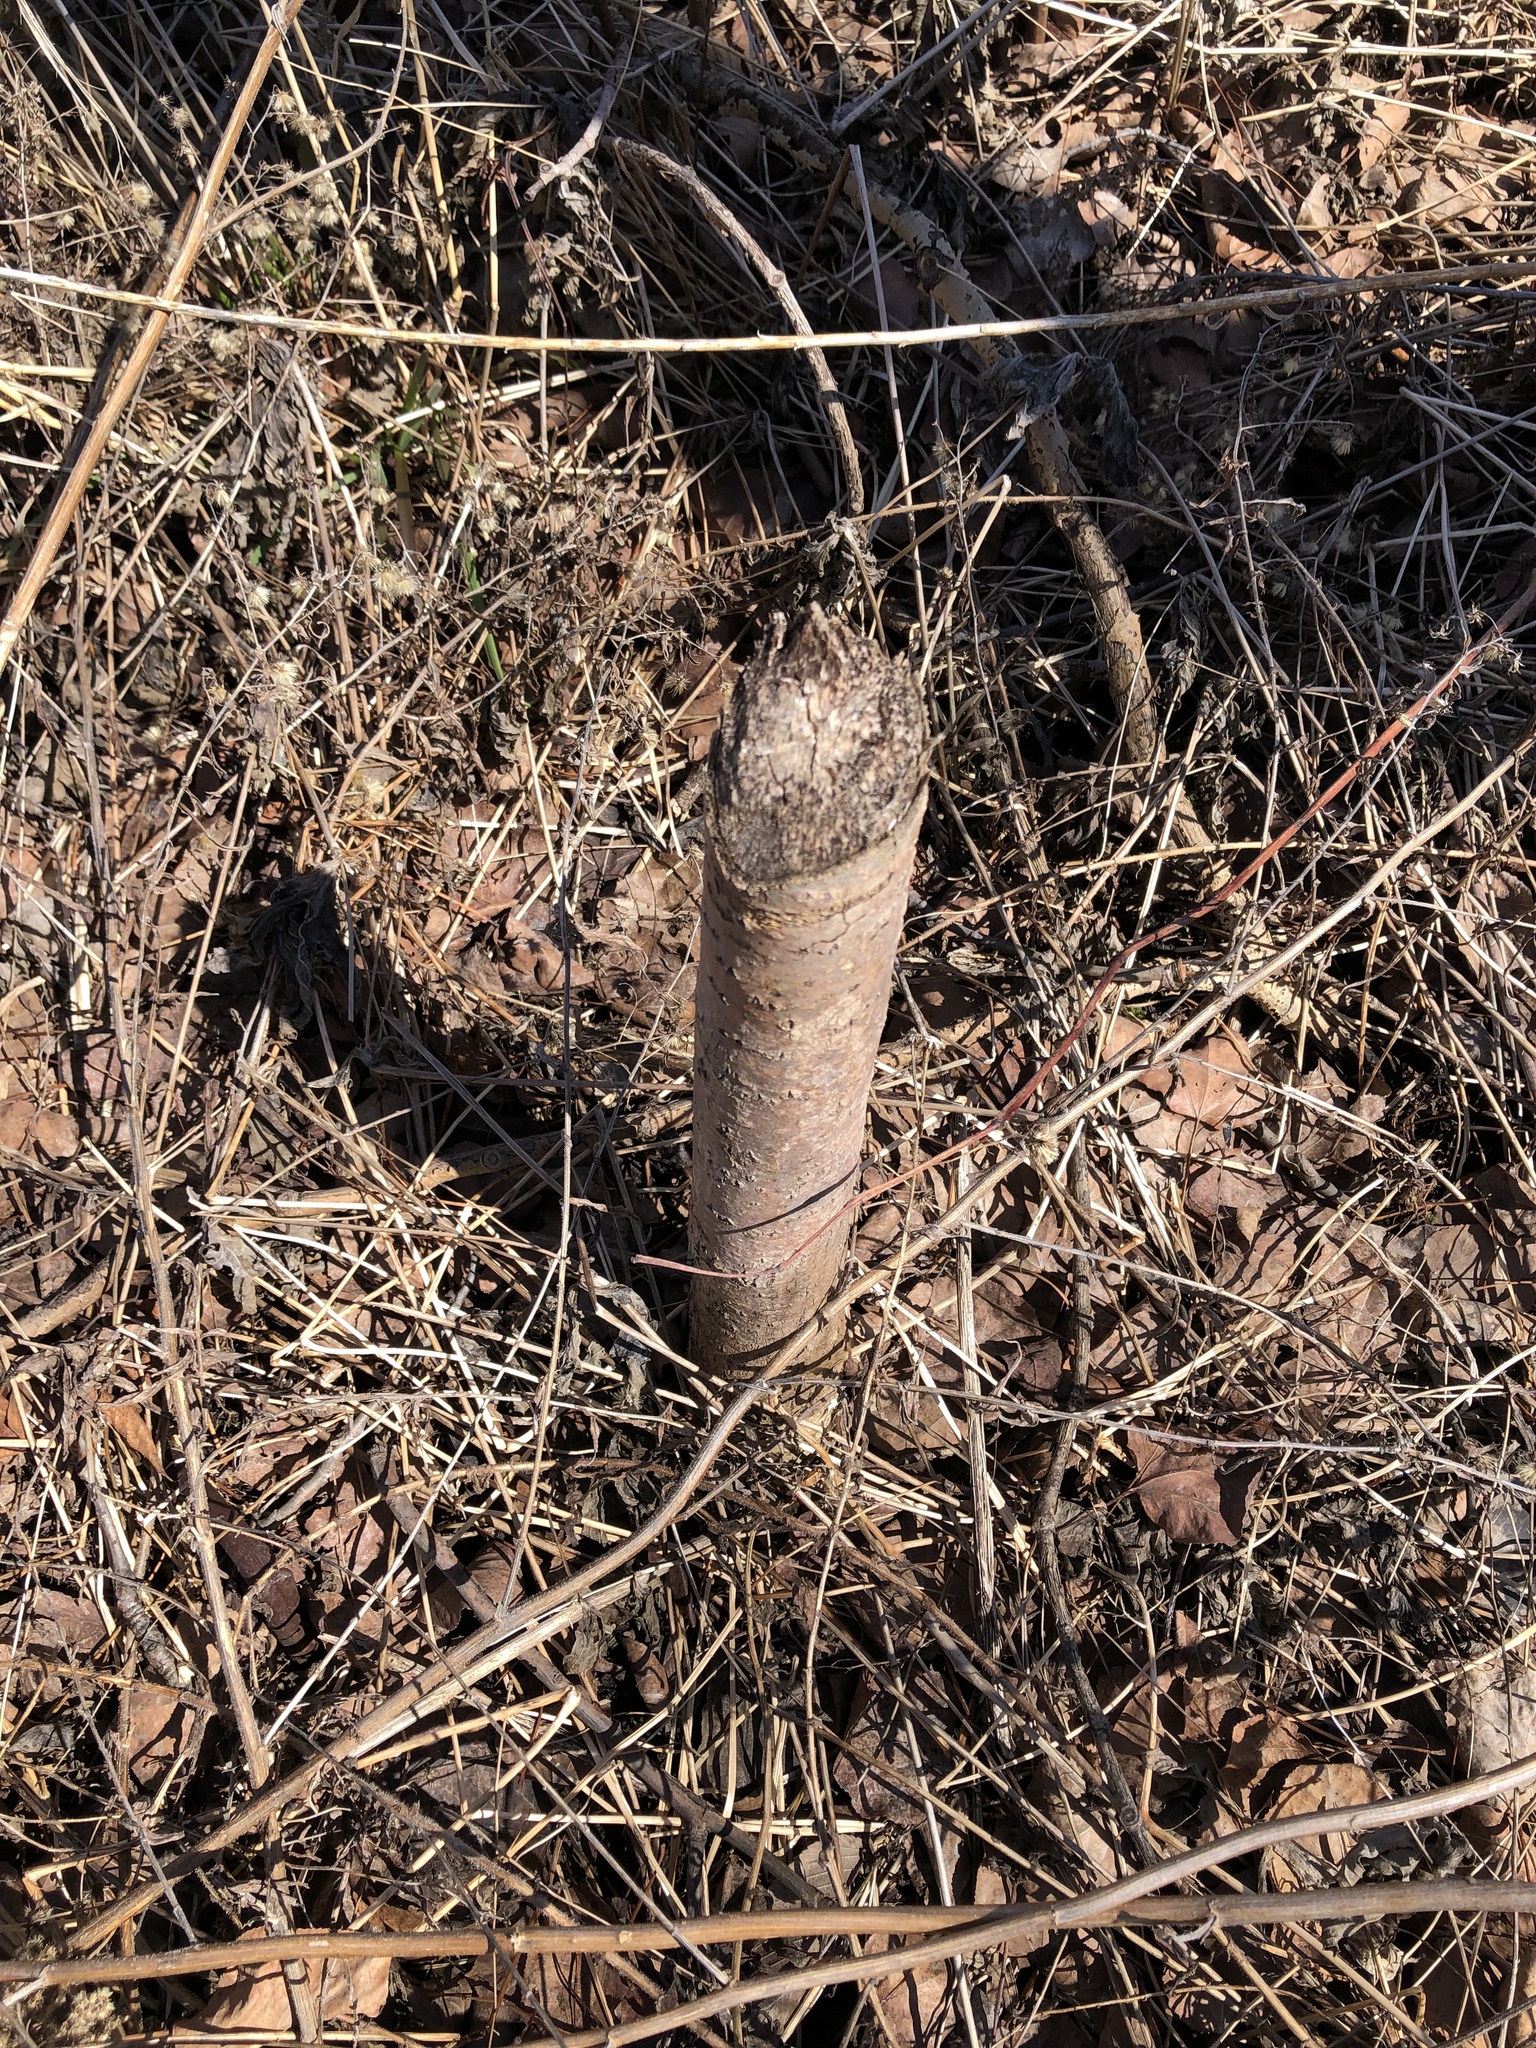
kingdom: Animalia
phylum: Chordata
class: Mammalia
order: Rodentia
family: Castoridae
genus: Castor
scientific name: Castor canadensis
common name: American beaver
